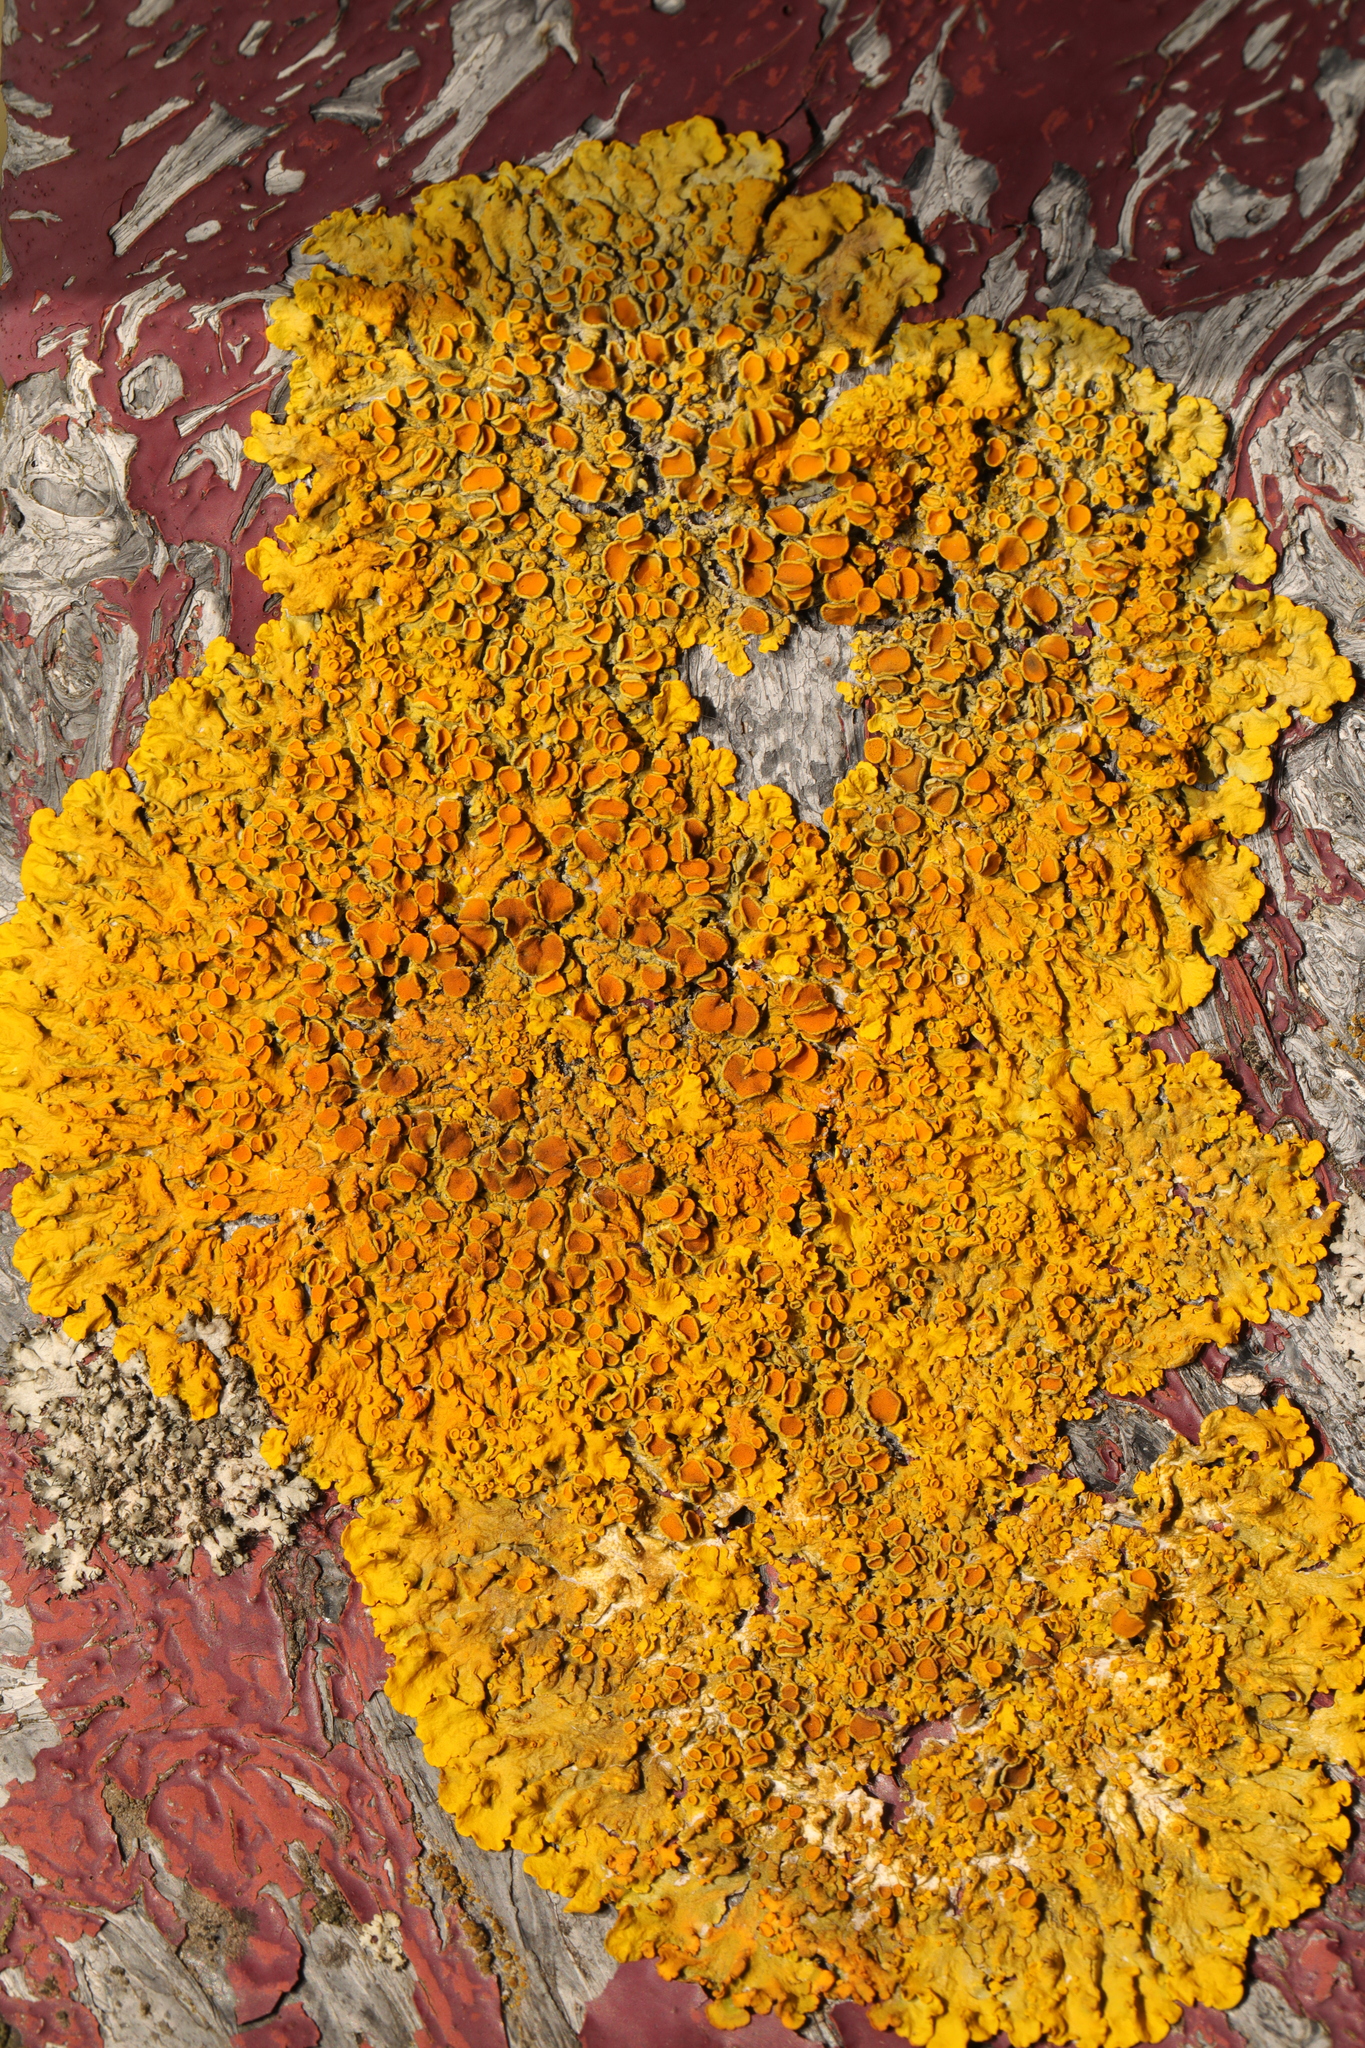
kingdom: Fungi
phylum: Ascomycota
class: Lecanoromycetes
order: Teloschistales
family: Teloschistaceae
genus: Xanthoria
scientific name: Xanthoria parietina
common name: Common orange lichen
